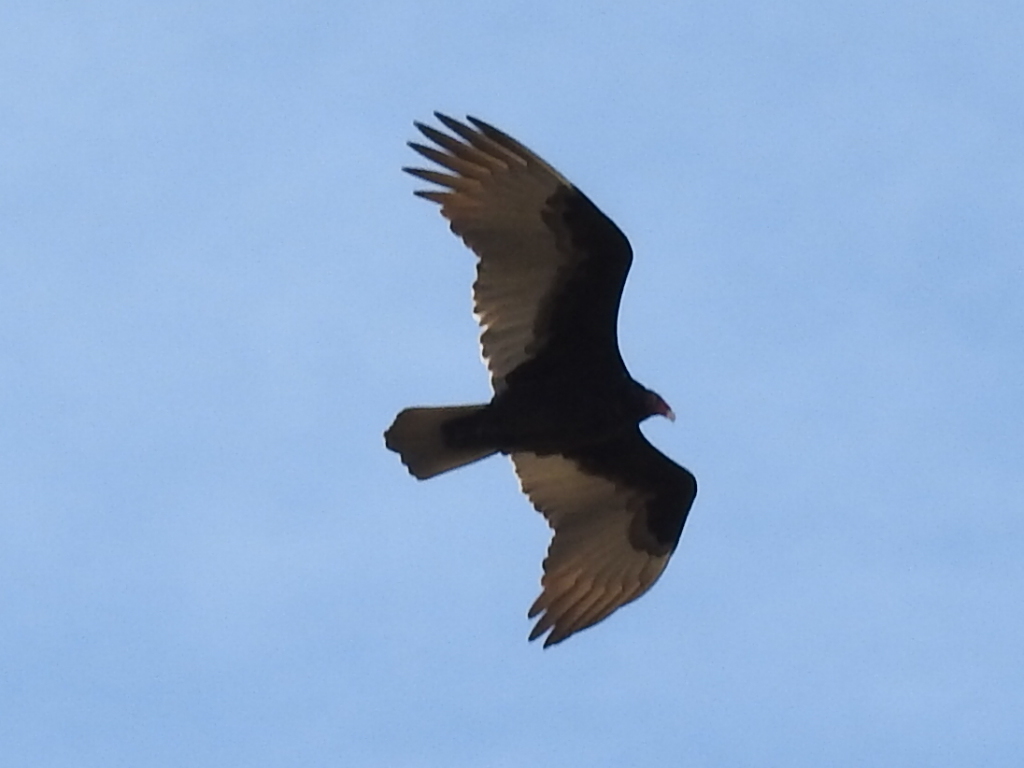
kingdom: Animalia
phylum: Chordata
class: Aves
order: Accipitriformes
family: Cathartidae
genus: Cathartes
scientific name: Cathartes aura
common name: Turkey vulture
